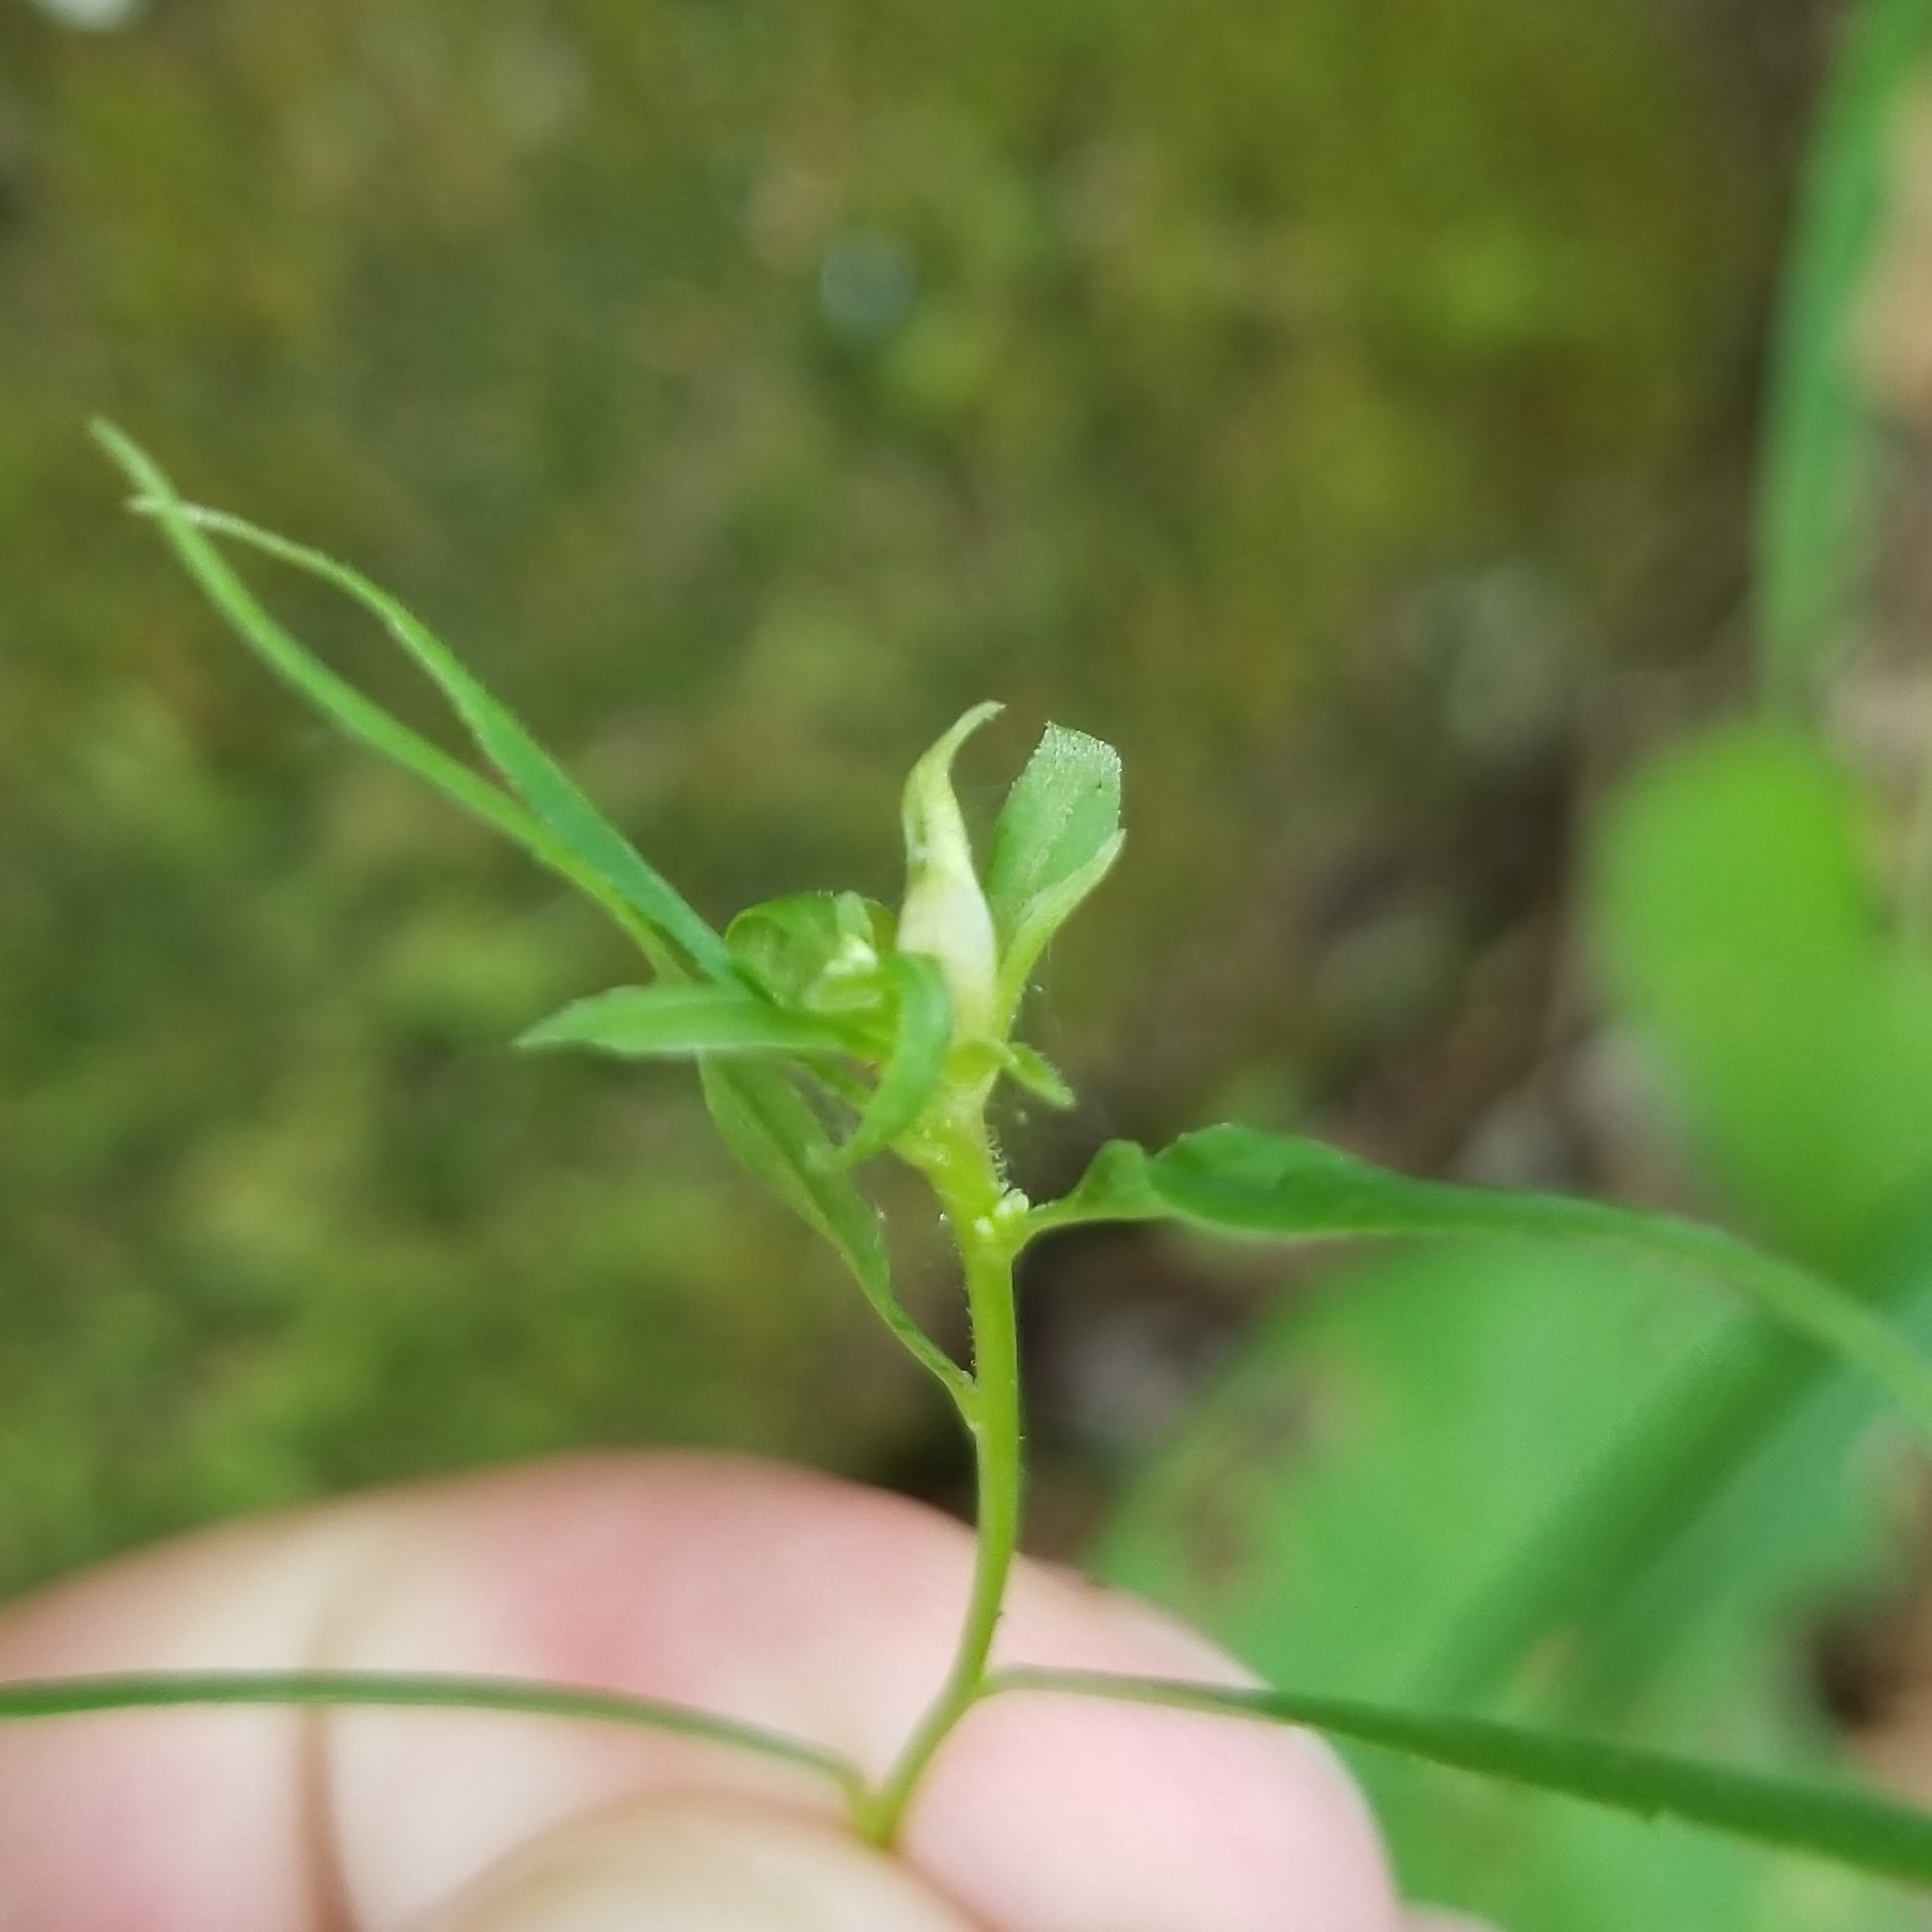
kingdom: Plantae
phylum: Tracheophyta
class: Magnoliopsida
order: Asterales
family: Asteraceae
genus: Solidago
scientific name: Solidago caesia
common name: Woodland goldenrod
